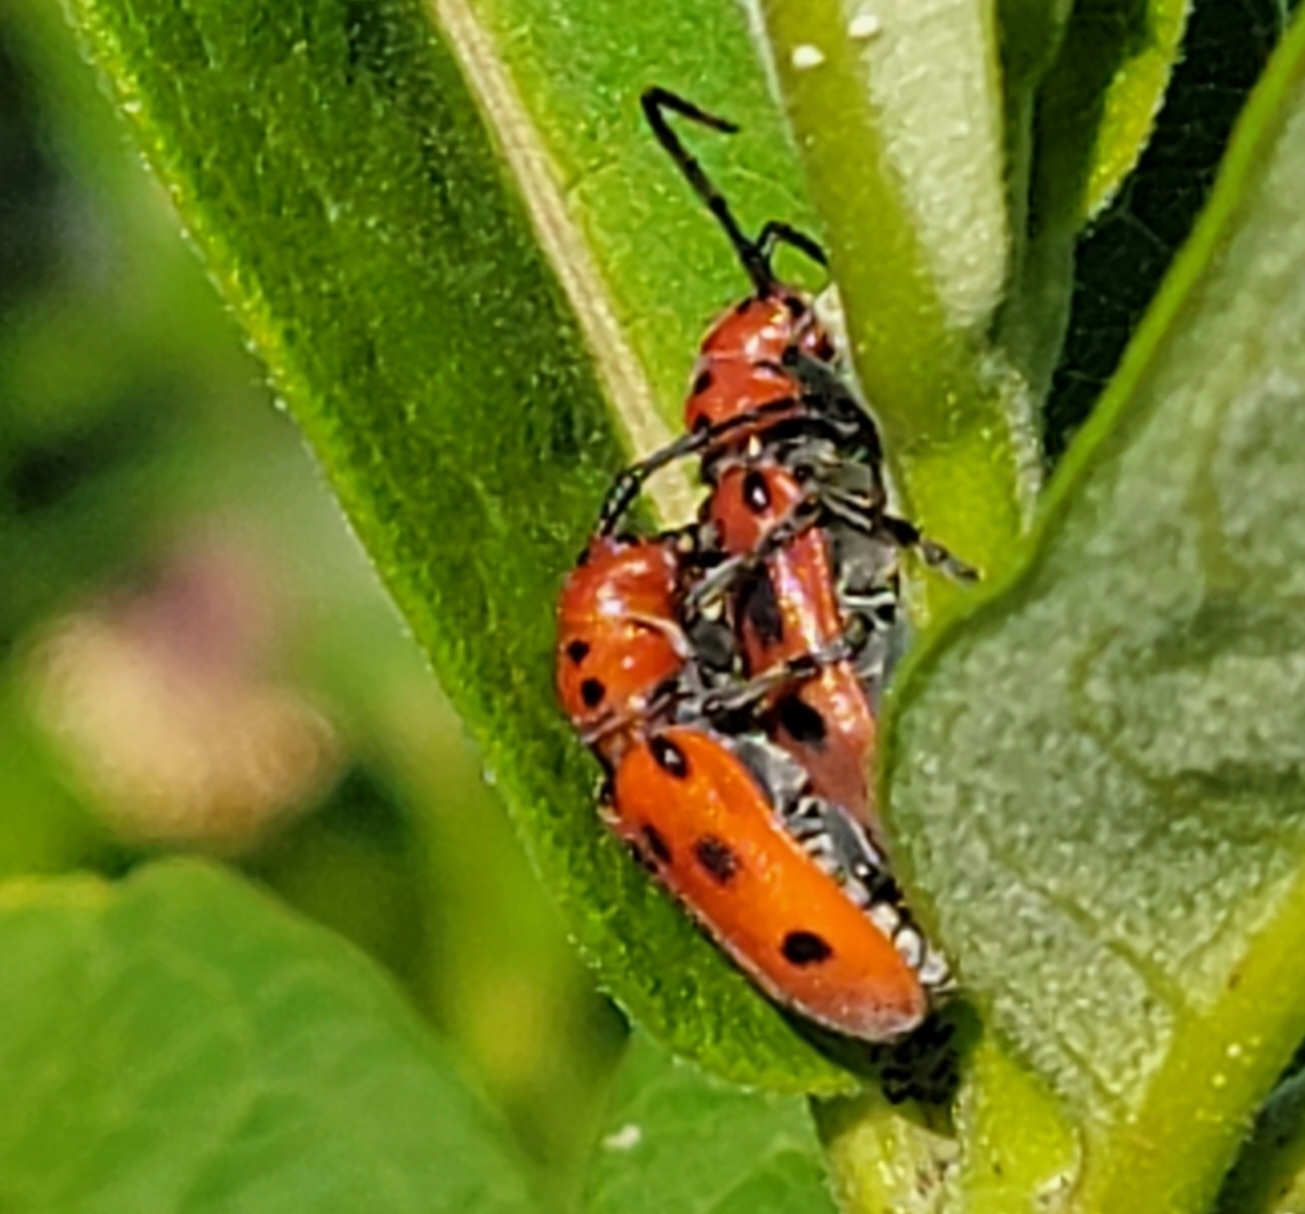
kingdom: Animalia
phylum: Arthropoda
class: Insecta
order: Coleoptera
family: Cerambycidae
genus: Tetraopes
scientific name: Tetraopes tetrophthalmus
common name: Red milkweed beetle
